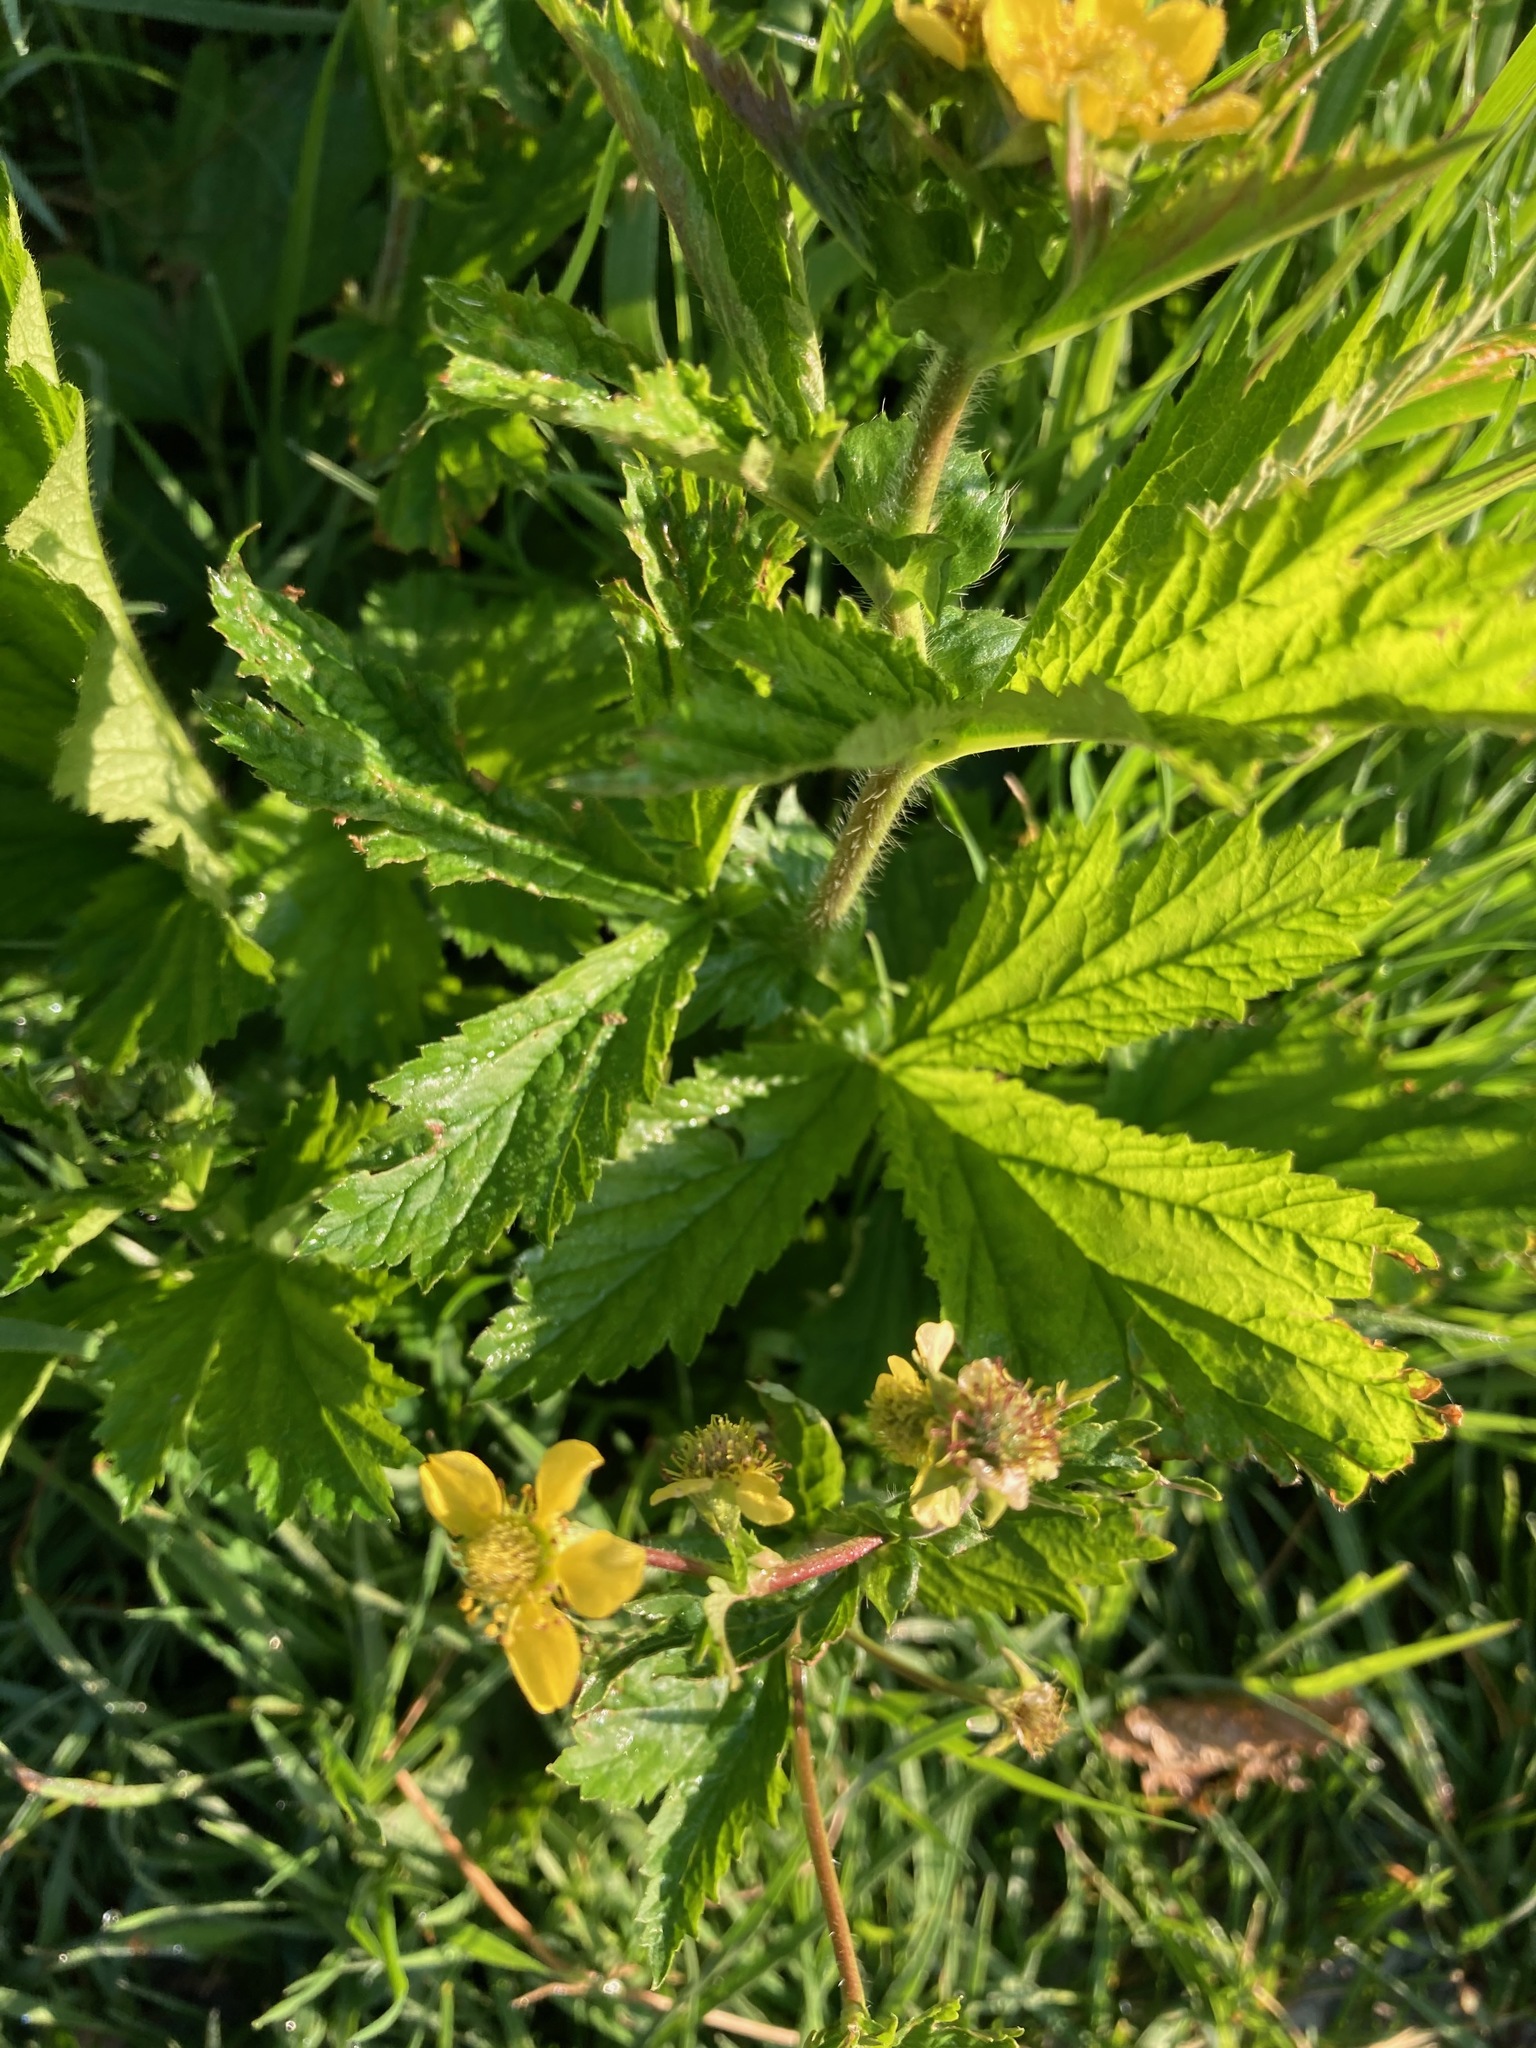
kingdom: Plantae
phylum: Tracheophyta
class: Magnoliopsida
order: Rosales
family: Rosaceae
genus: Geum
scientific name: Geum macrophyllum
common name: Large-leaved avens
